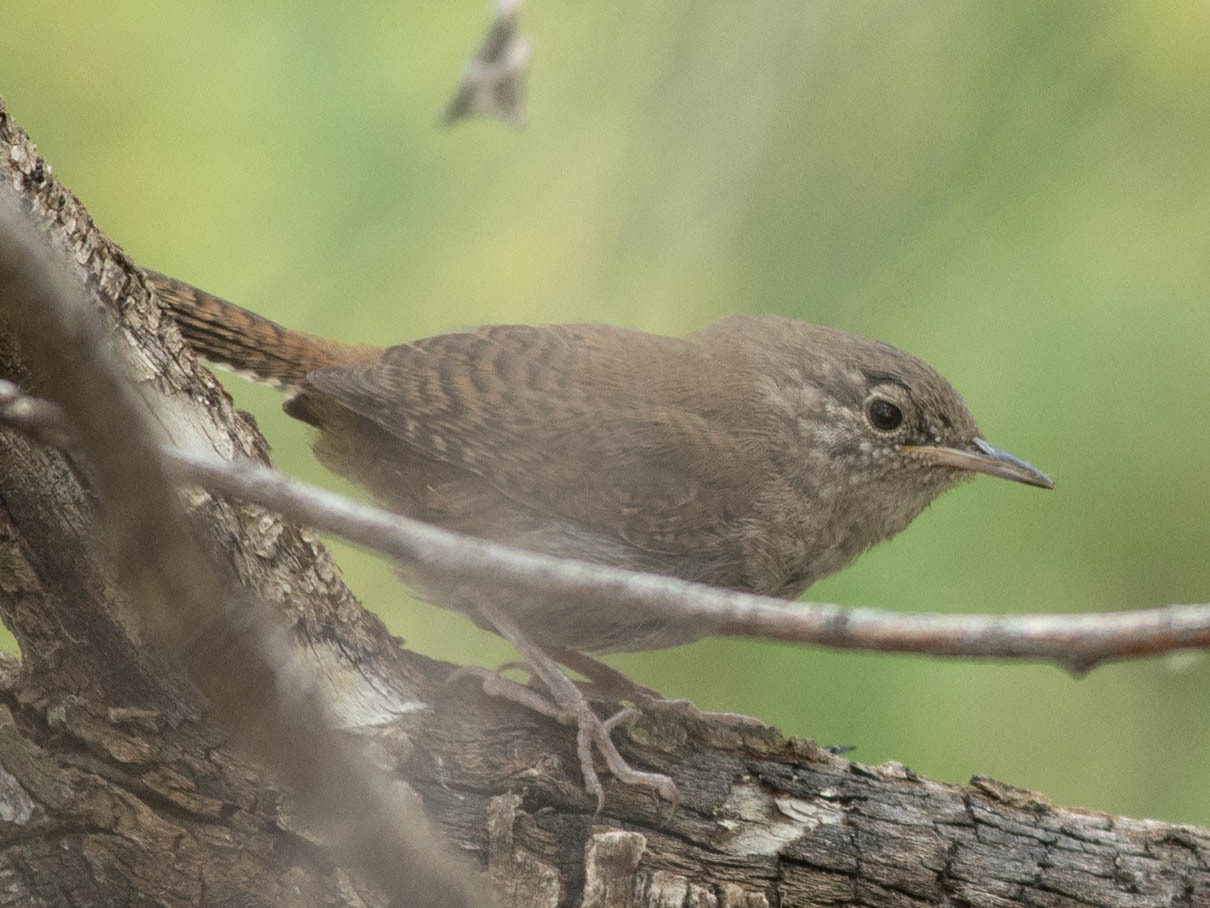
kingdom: Animalia
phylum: Chordata
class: Aves
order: Passeriformes
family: Troglodytidae
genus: Troglodytes
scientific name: Troglodytes aedon
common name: House wren
